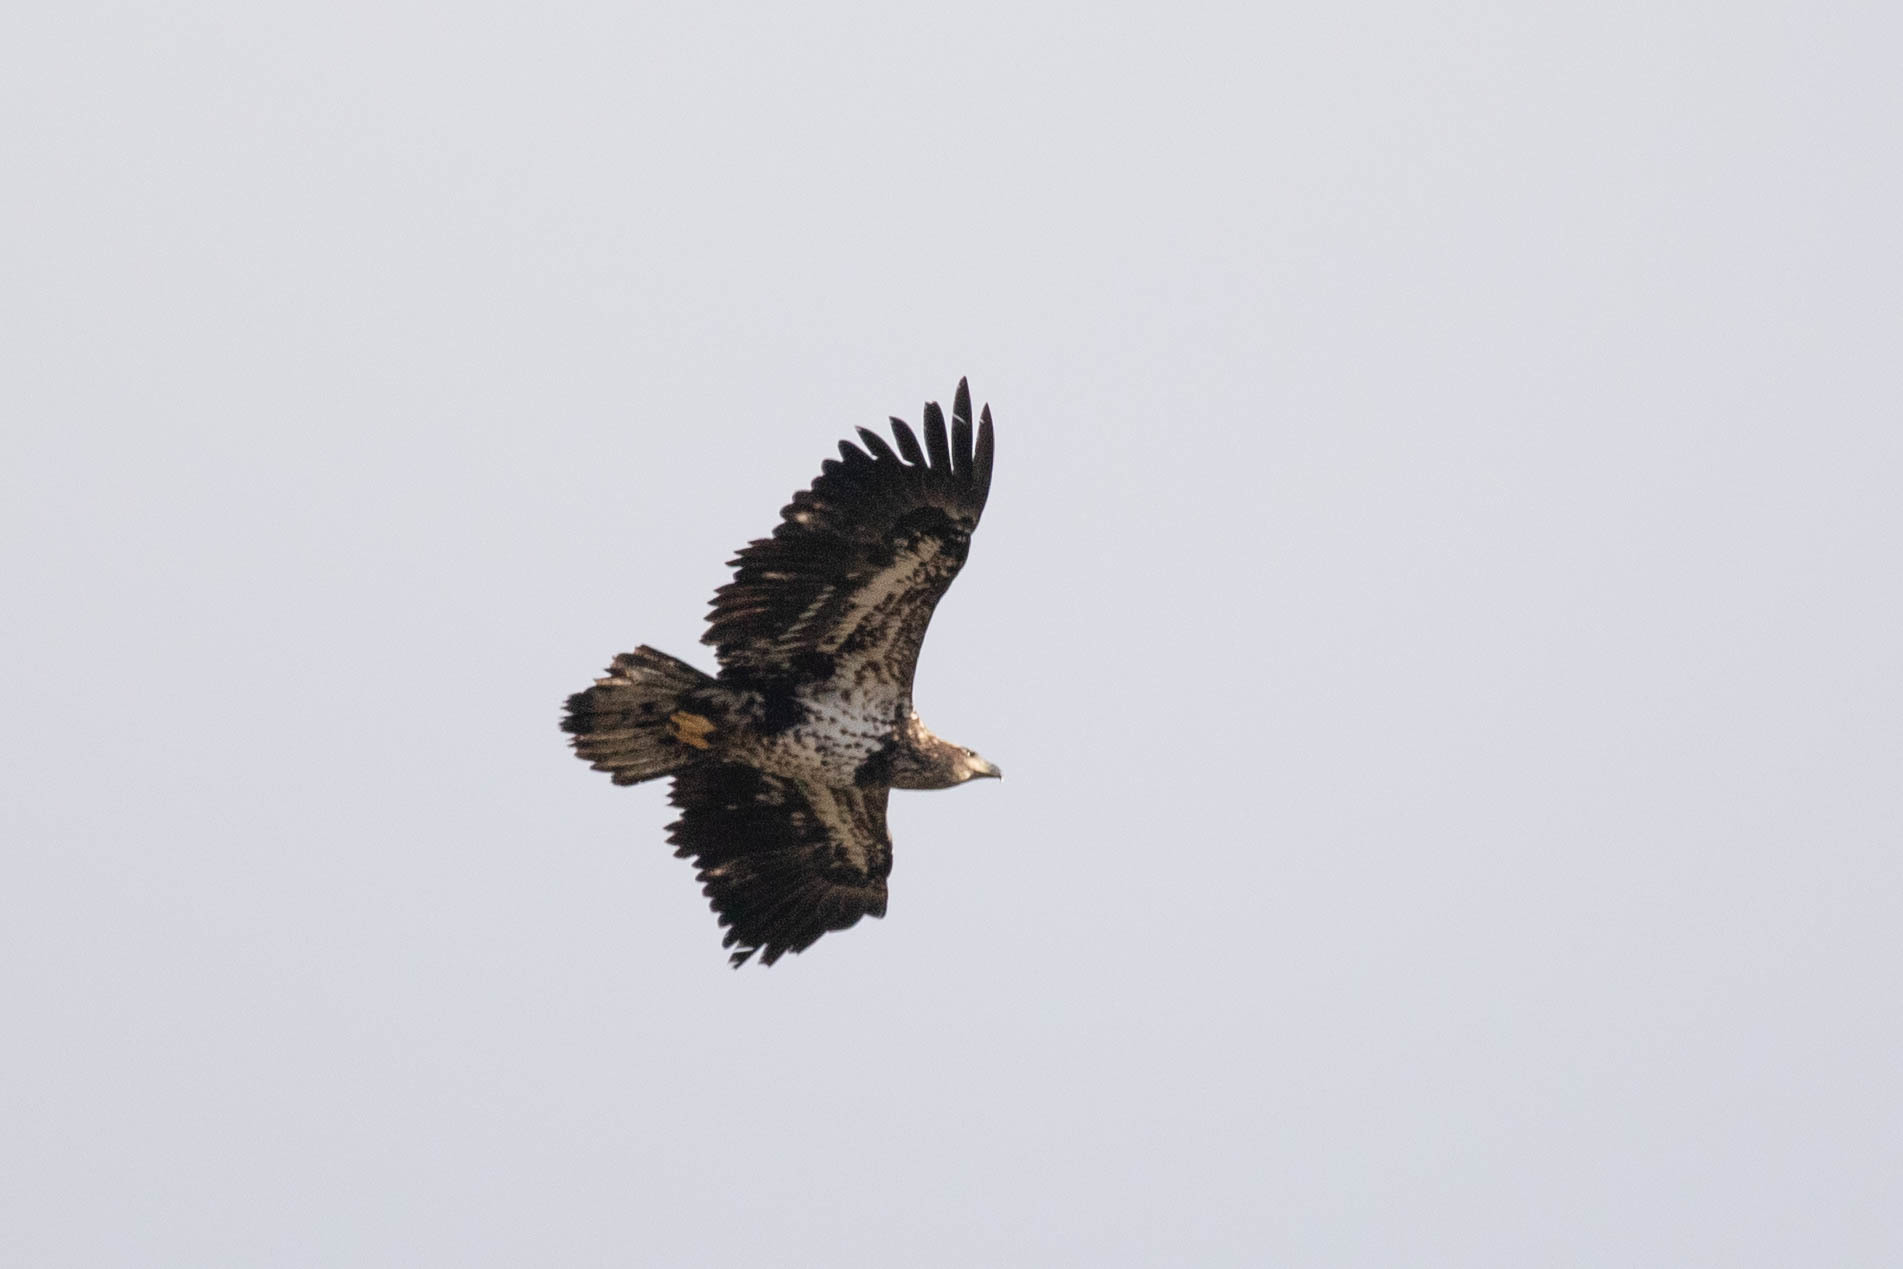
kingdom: Animalia
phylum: Chordata
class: Aves
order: Accipitriformes
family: Accipitridae
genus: Haliaeetus
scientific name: Haliaeetus leucocephalus
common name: Bald eagle
